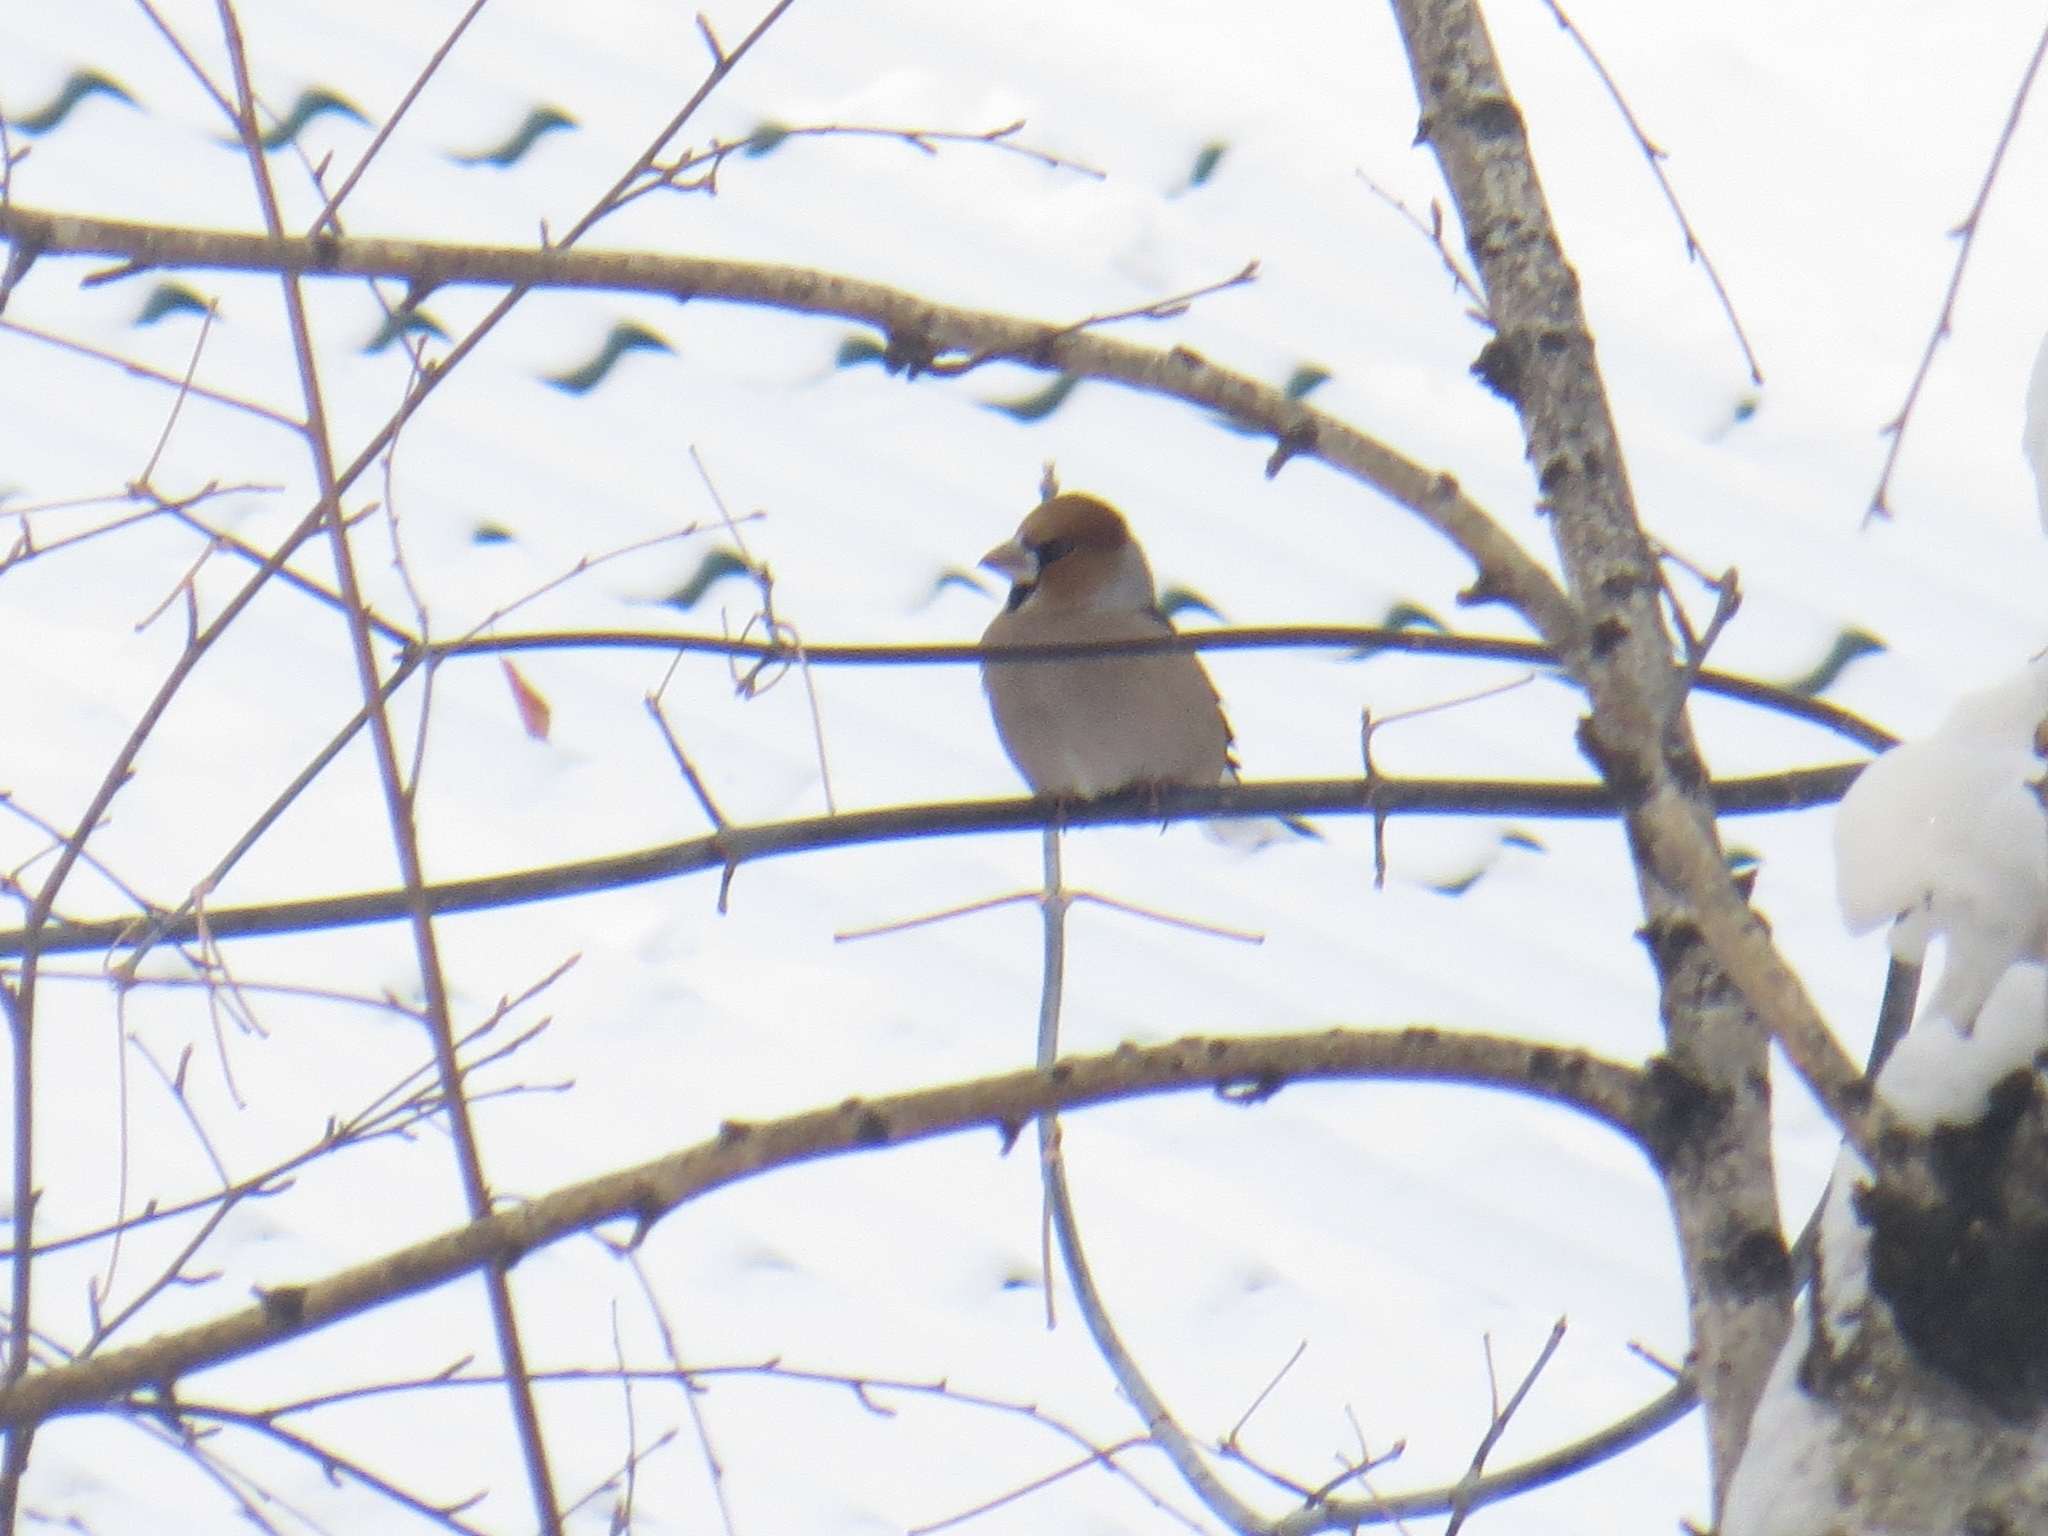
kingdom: Animalia
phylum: Chordata
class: Aves
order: Passeriformes
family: Fringillidae
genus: Coccothraustes
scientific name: Coccothraustes coccothraustes
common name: Hawfinch
